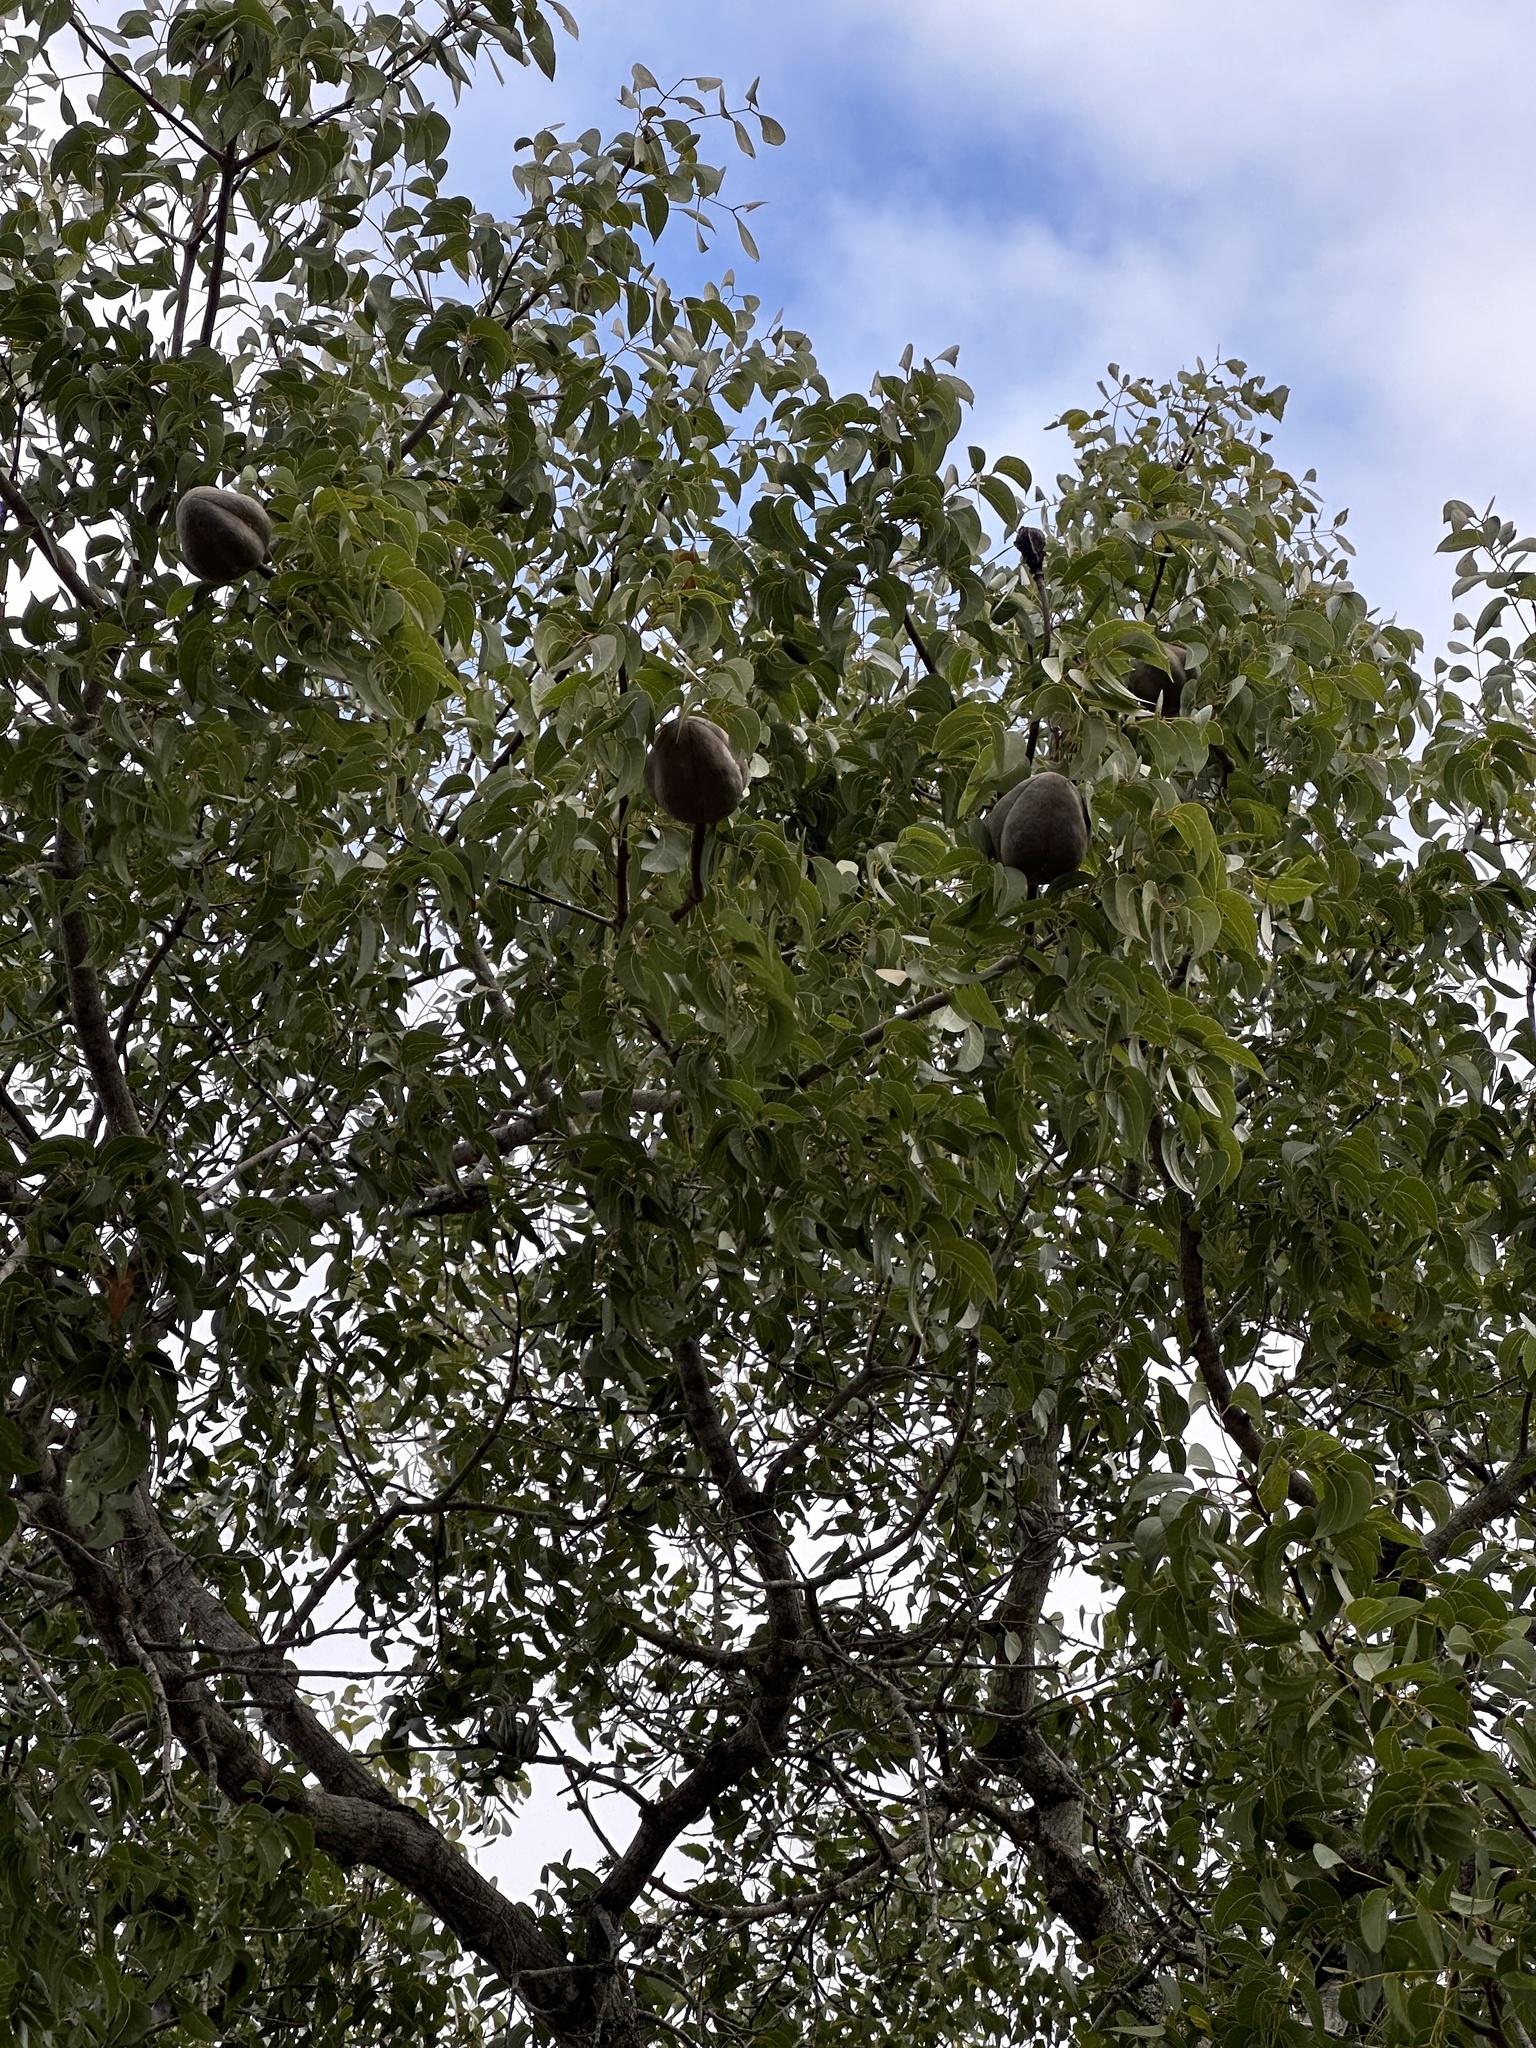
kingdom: Plantae
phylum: Tracheophyta
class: Magnoliopsida
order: Sapindales
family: Meliaceae
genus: Swietenia
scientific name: Swietenia mahagoni
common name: West indian mahogany
